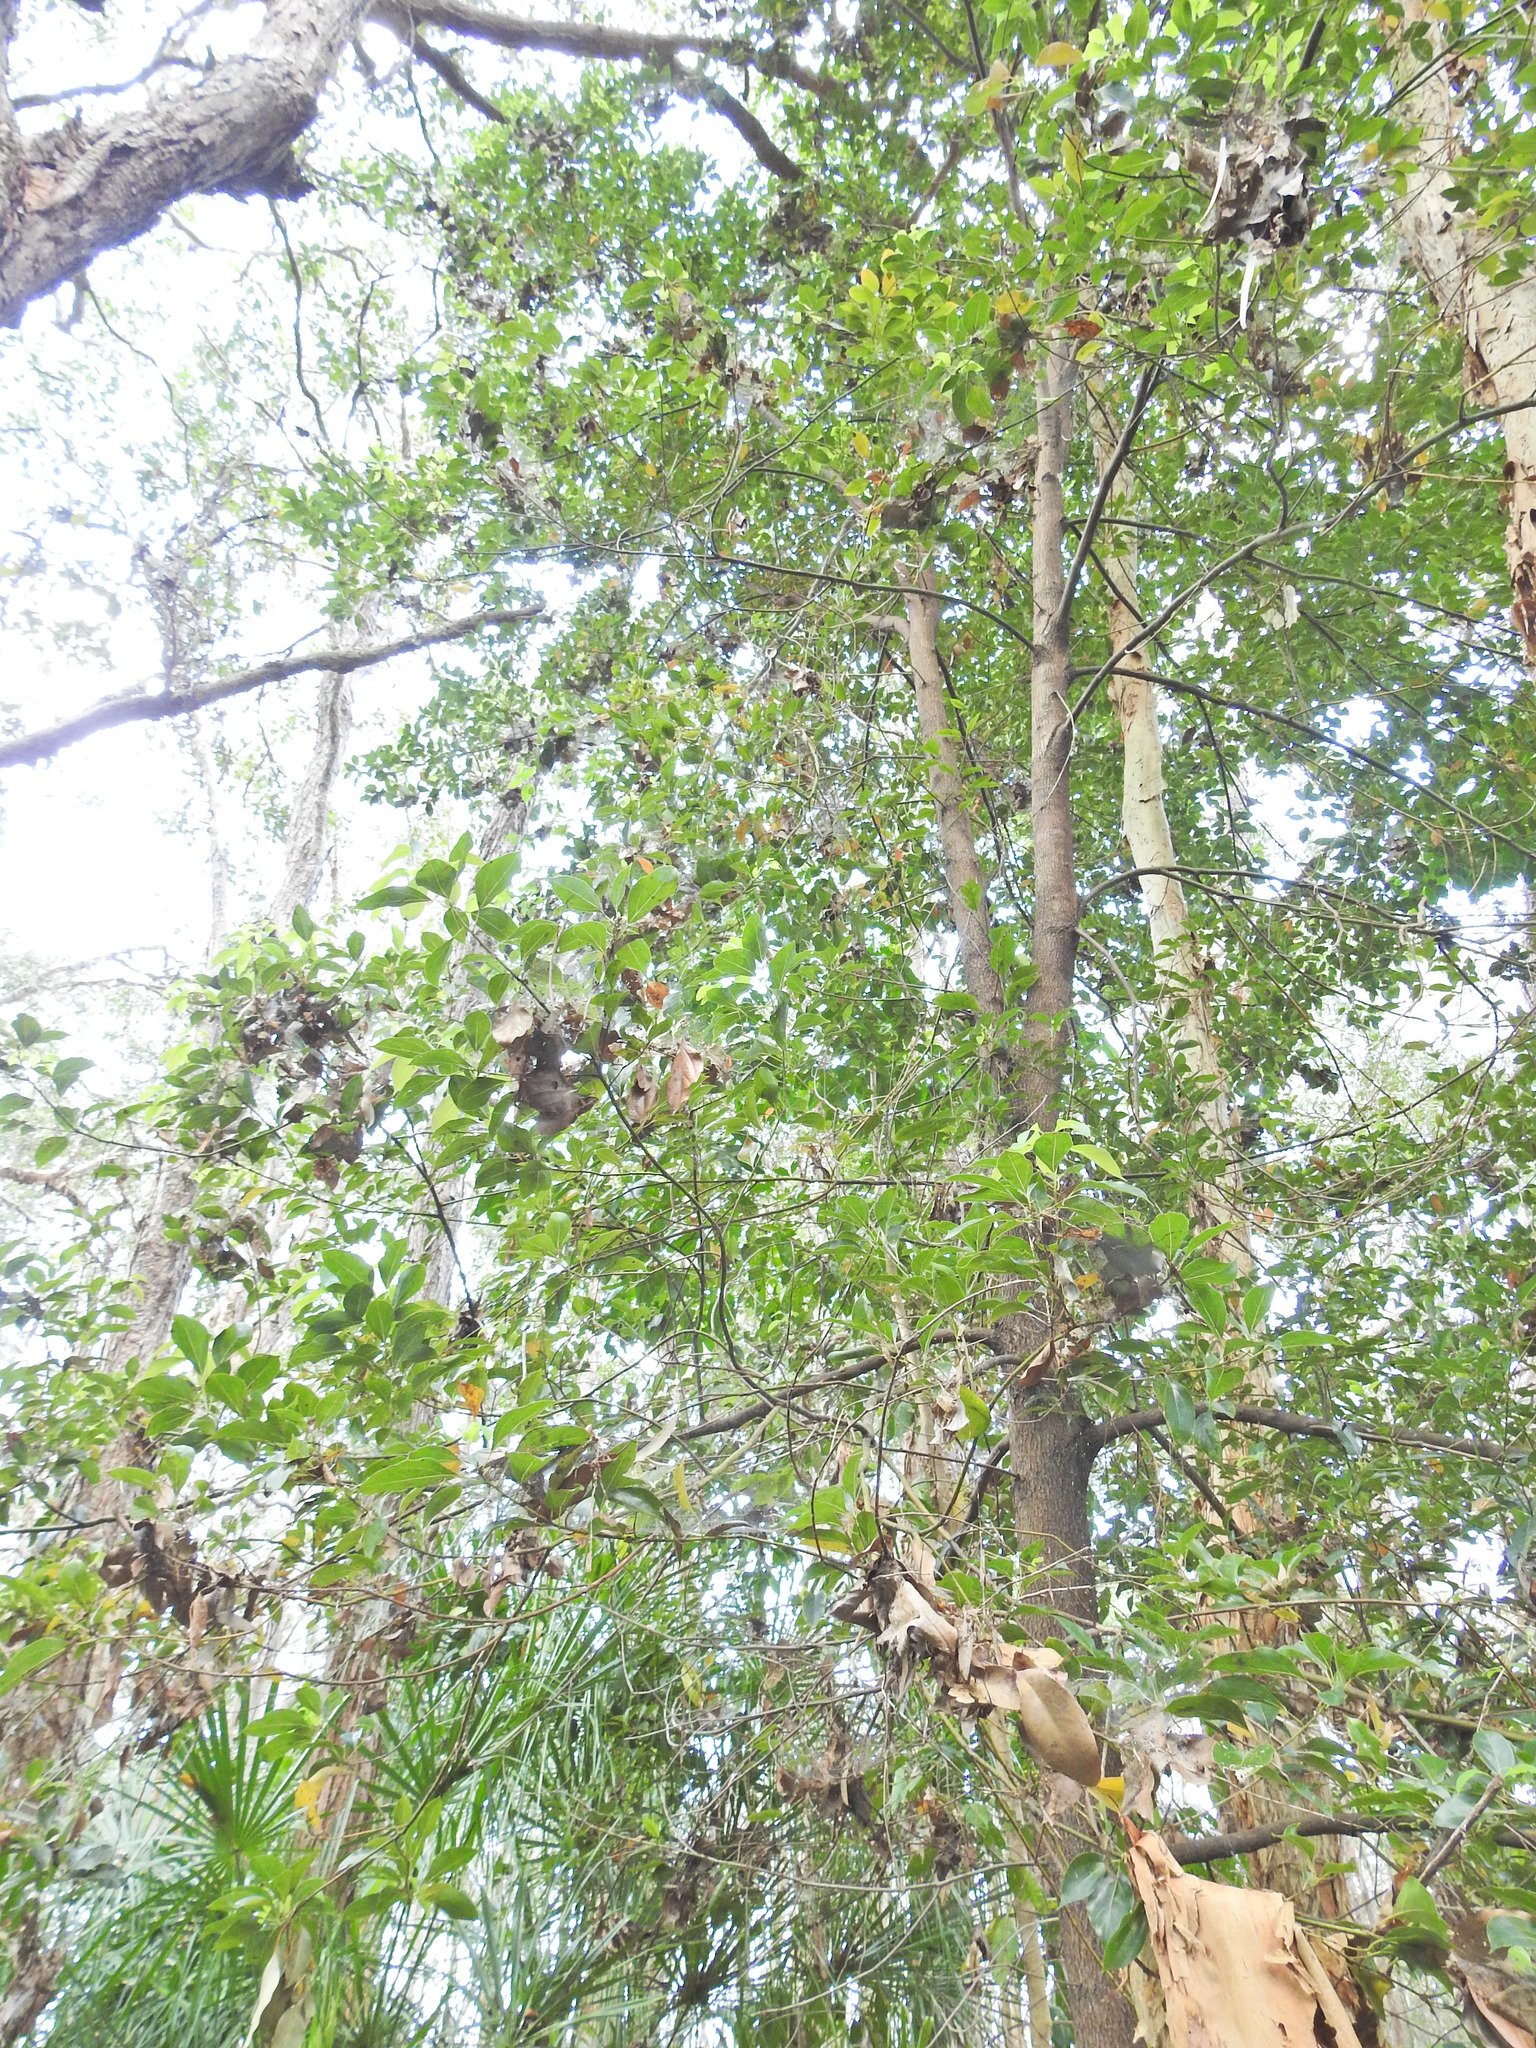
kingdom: Plantae
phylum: Tracheophyta
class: Magnoliopsida
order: Laurales
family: Lauraceae
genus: Cinnamomum
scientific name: Cinnamomum camphora
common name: Camphortree
